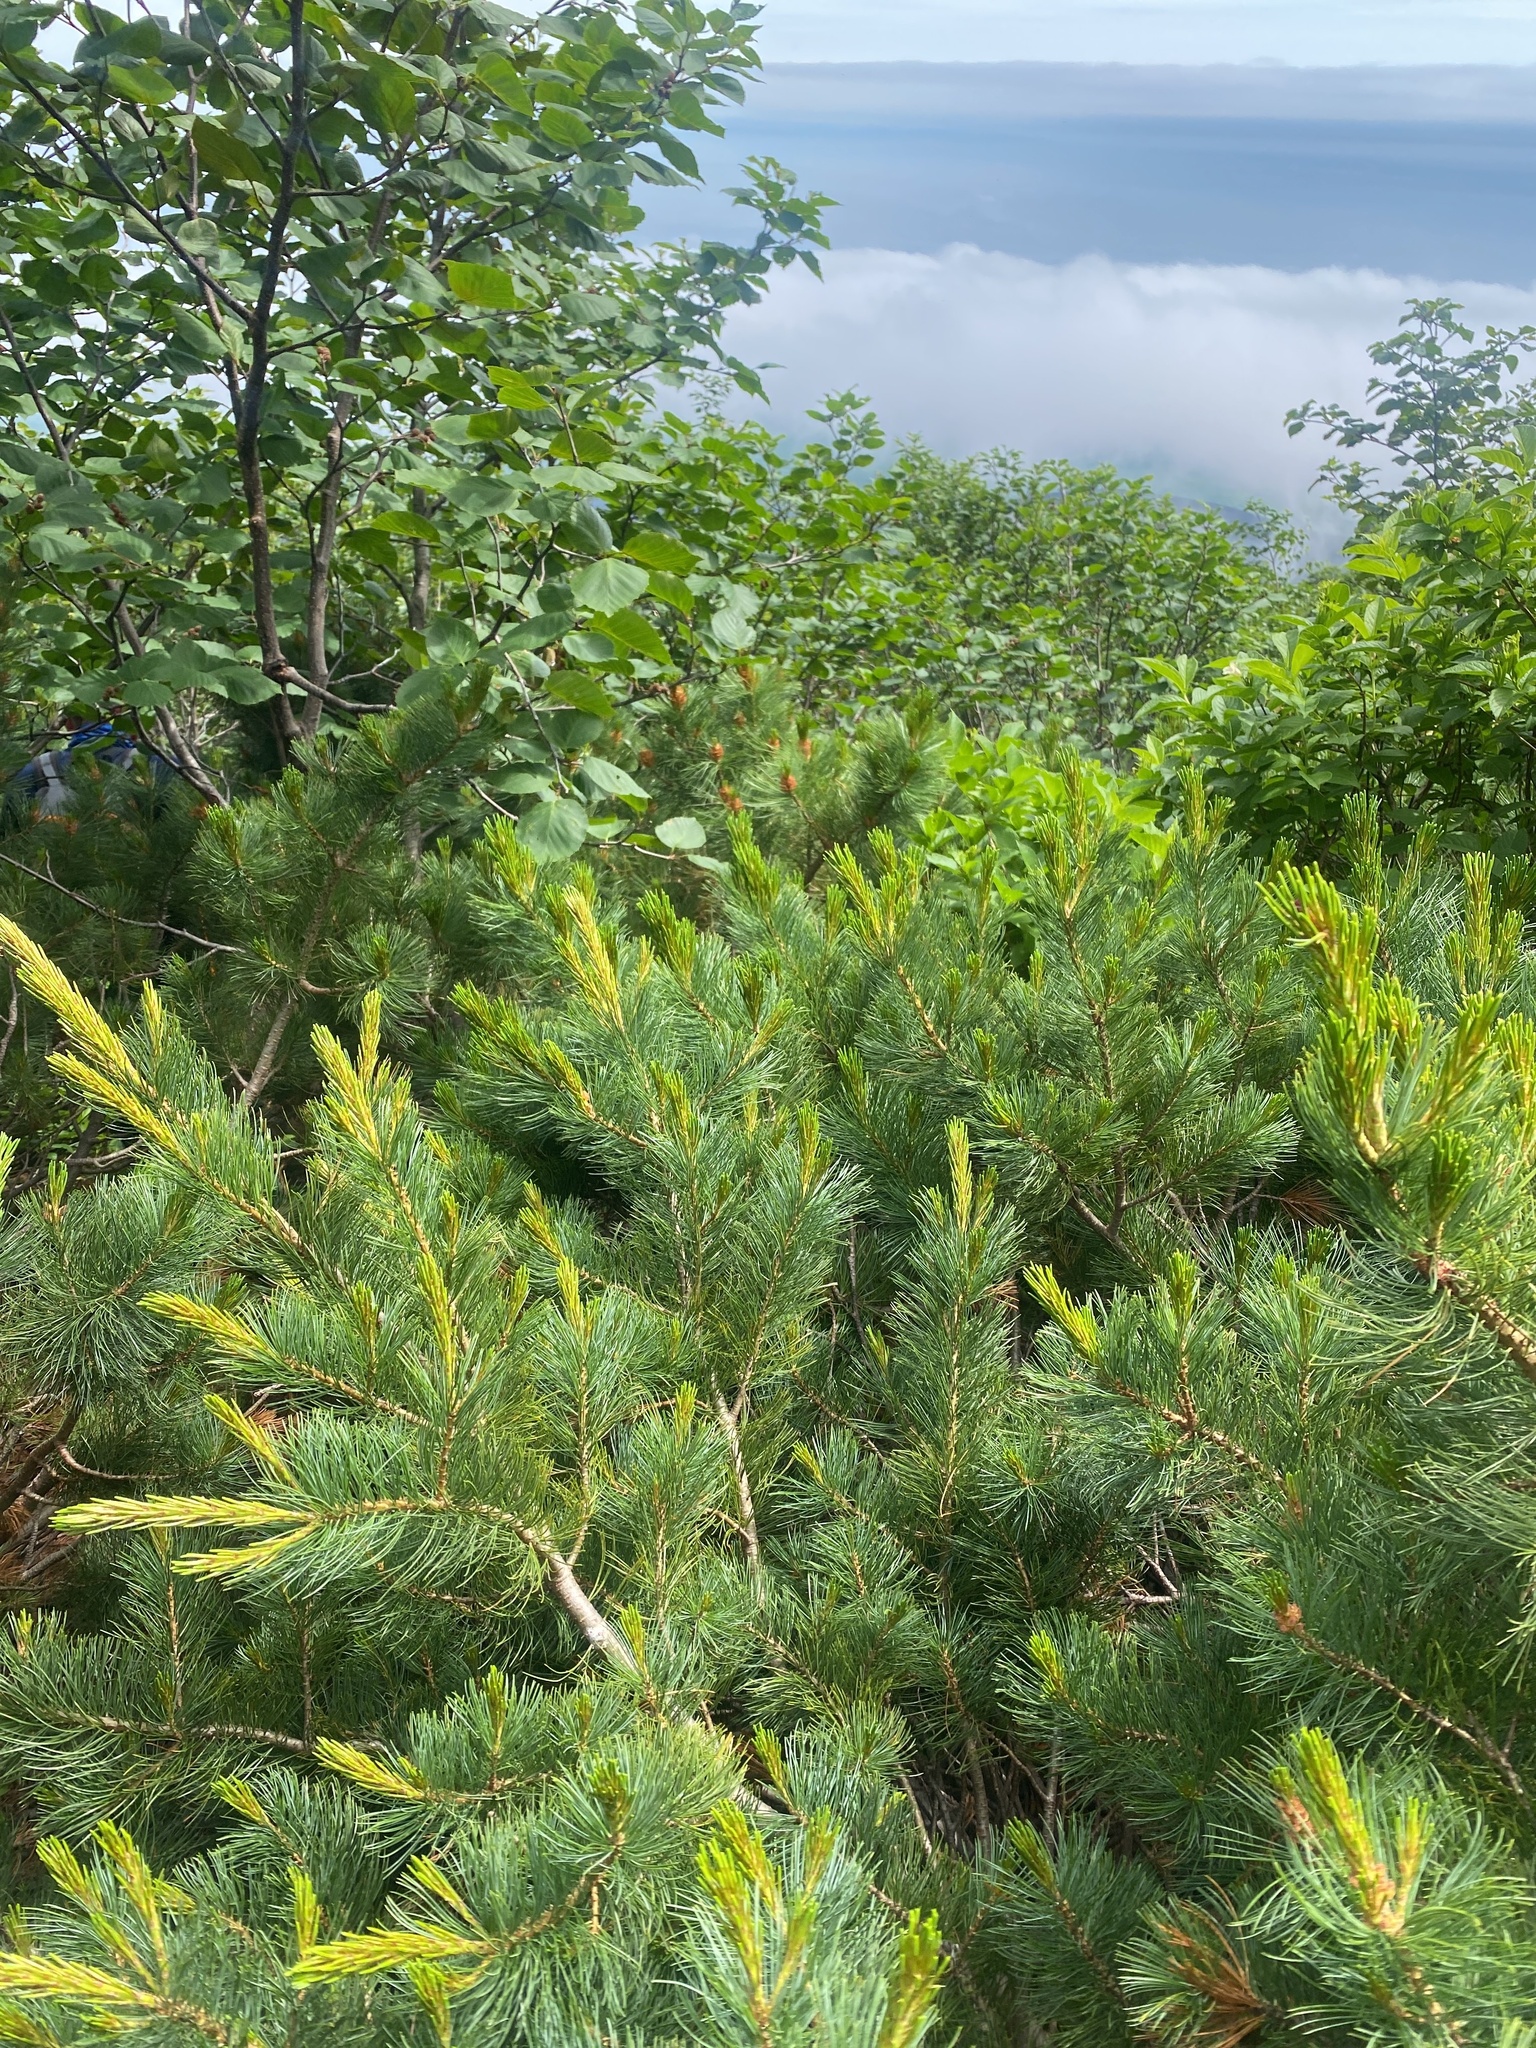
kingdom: Plantae
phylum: Tracheophyta
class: Pinopsida
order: Pinales
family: Pinaceae
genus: Pinus
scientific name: Pinus pumila
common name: Dwarf siberian pine
